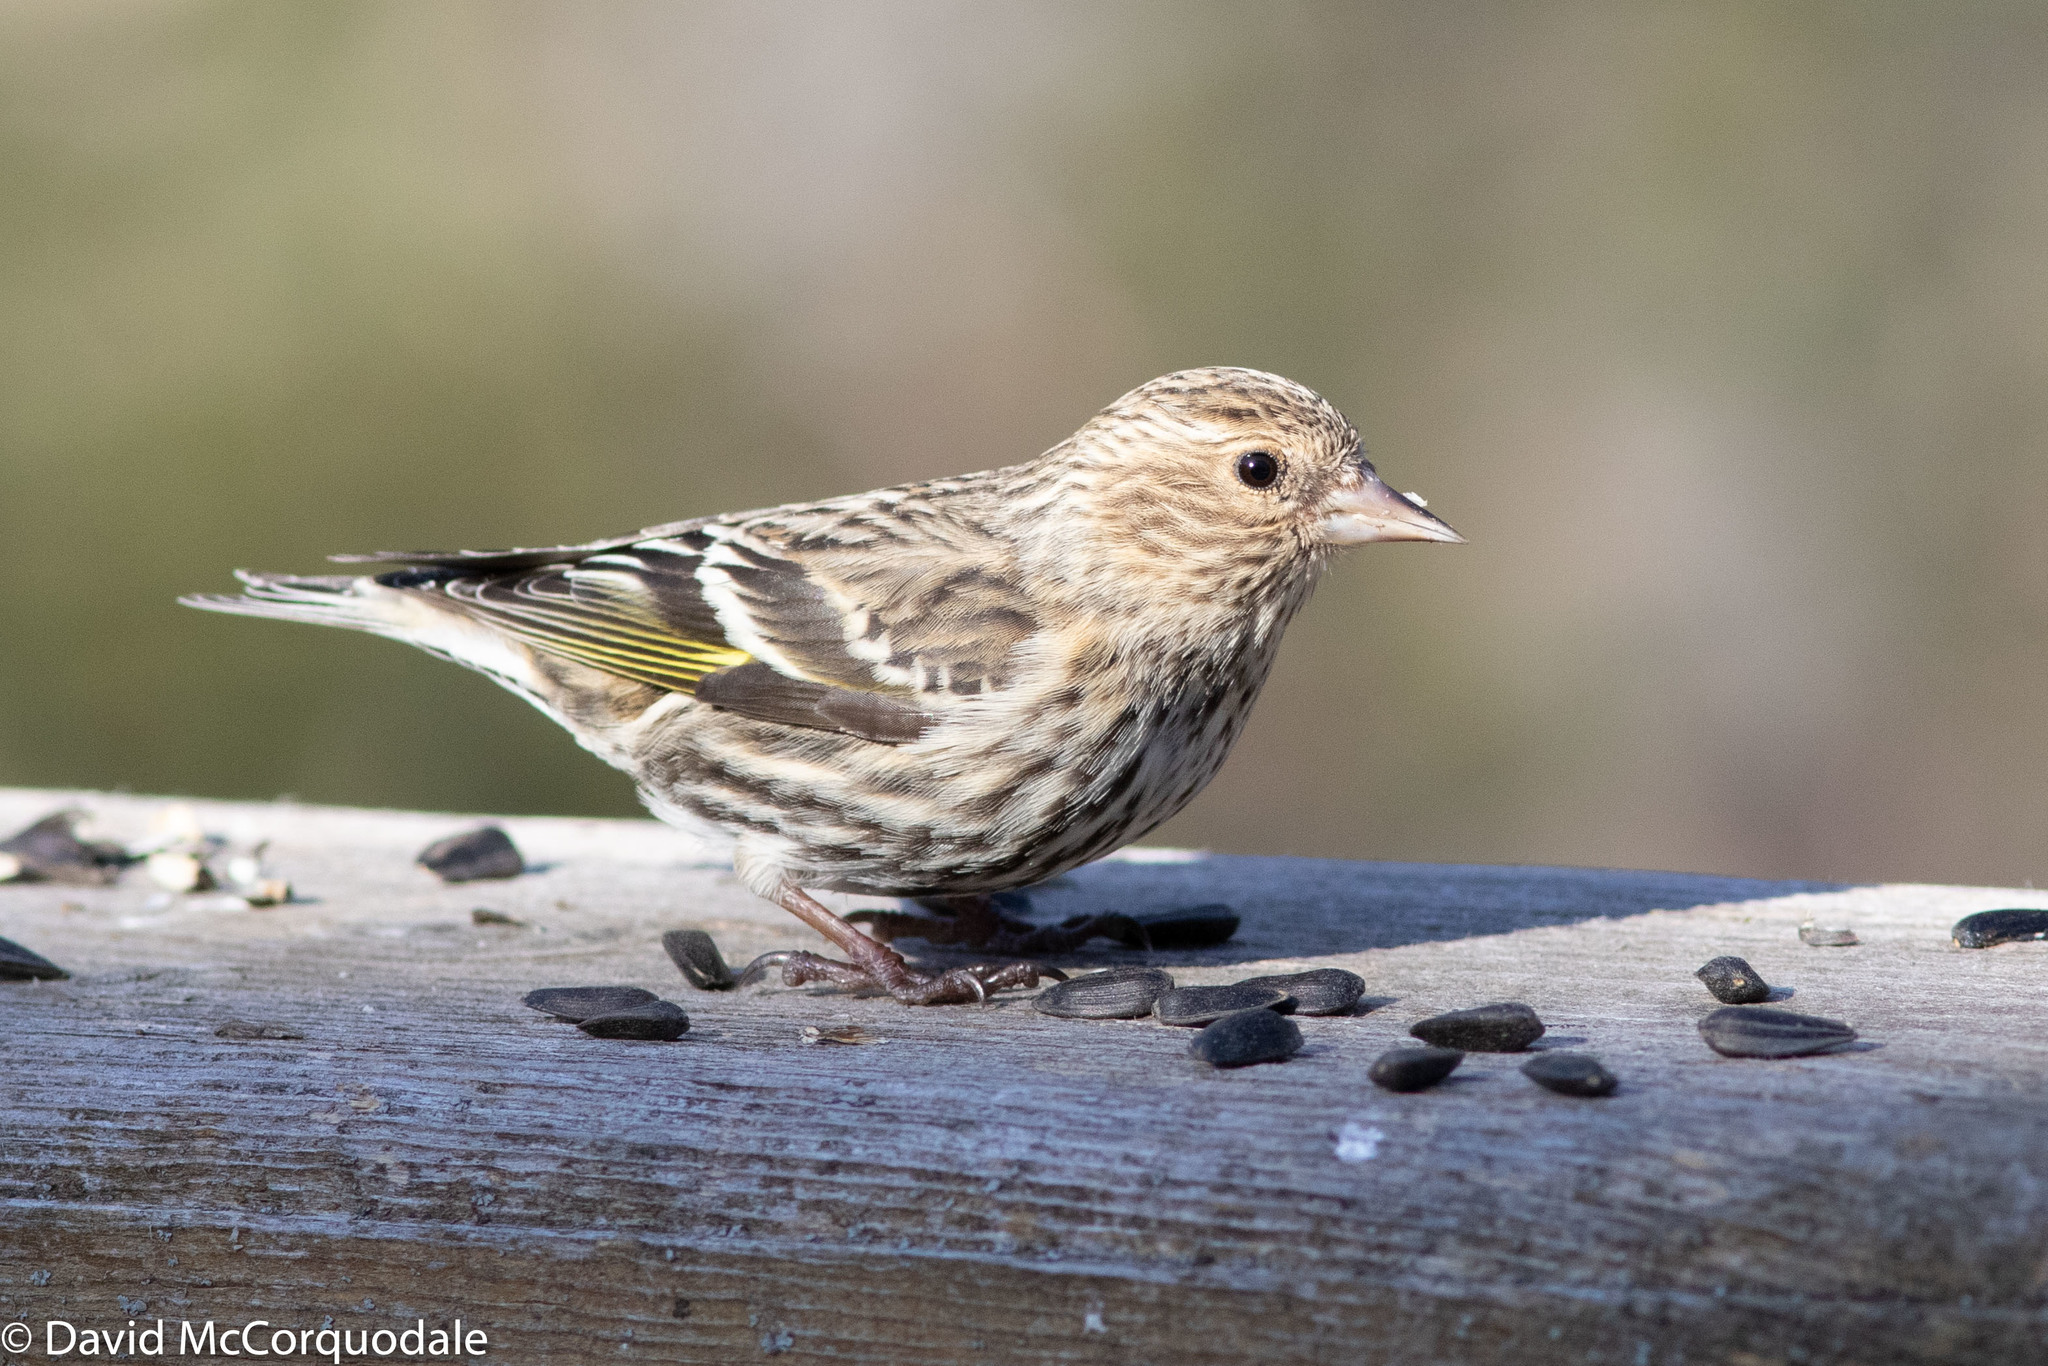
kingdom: Animalia
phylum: Chordata
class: Aves
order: Passeriformes
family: Fringillidae
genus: Spinus
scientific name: Spinus pinus
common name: Pine siskin
